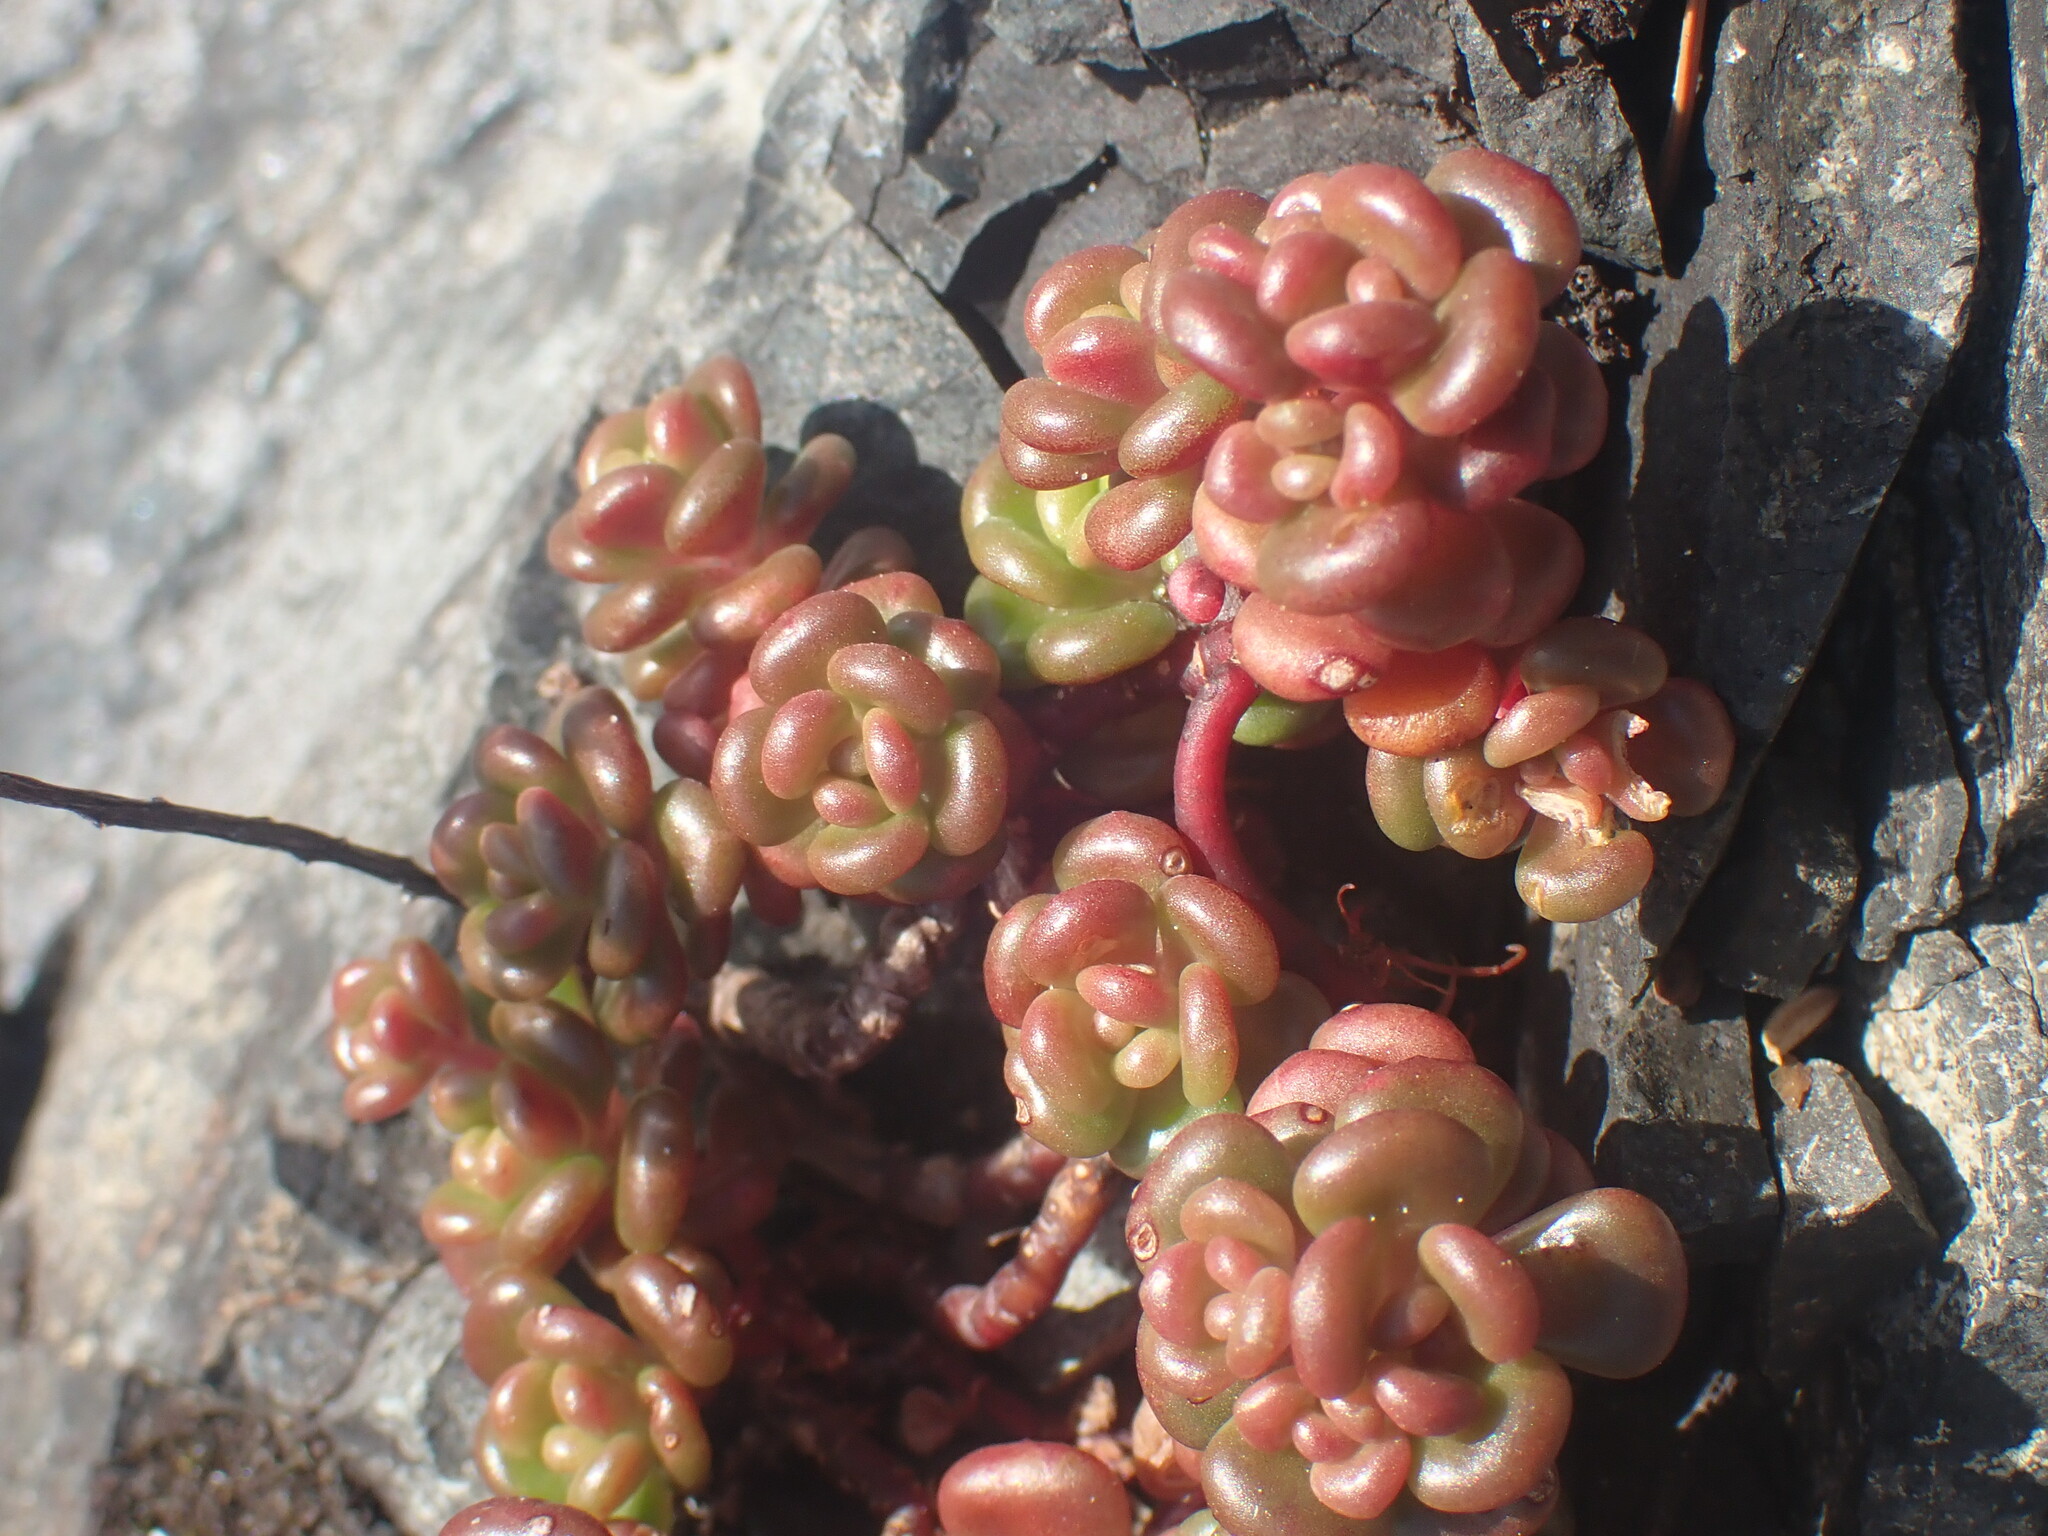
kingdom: Plantae
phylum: Tracheophyta
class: Magnoliopsida
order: Saxifragales
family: Crassulaceae
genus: Sedum
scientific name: Sedum oreganum
